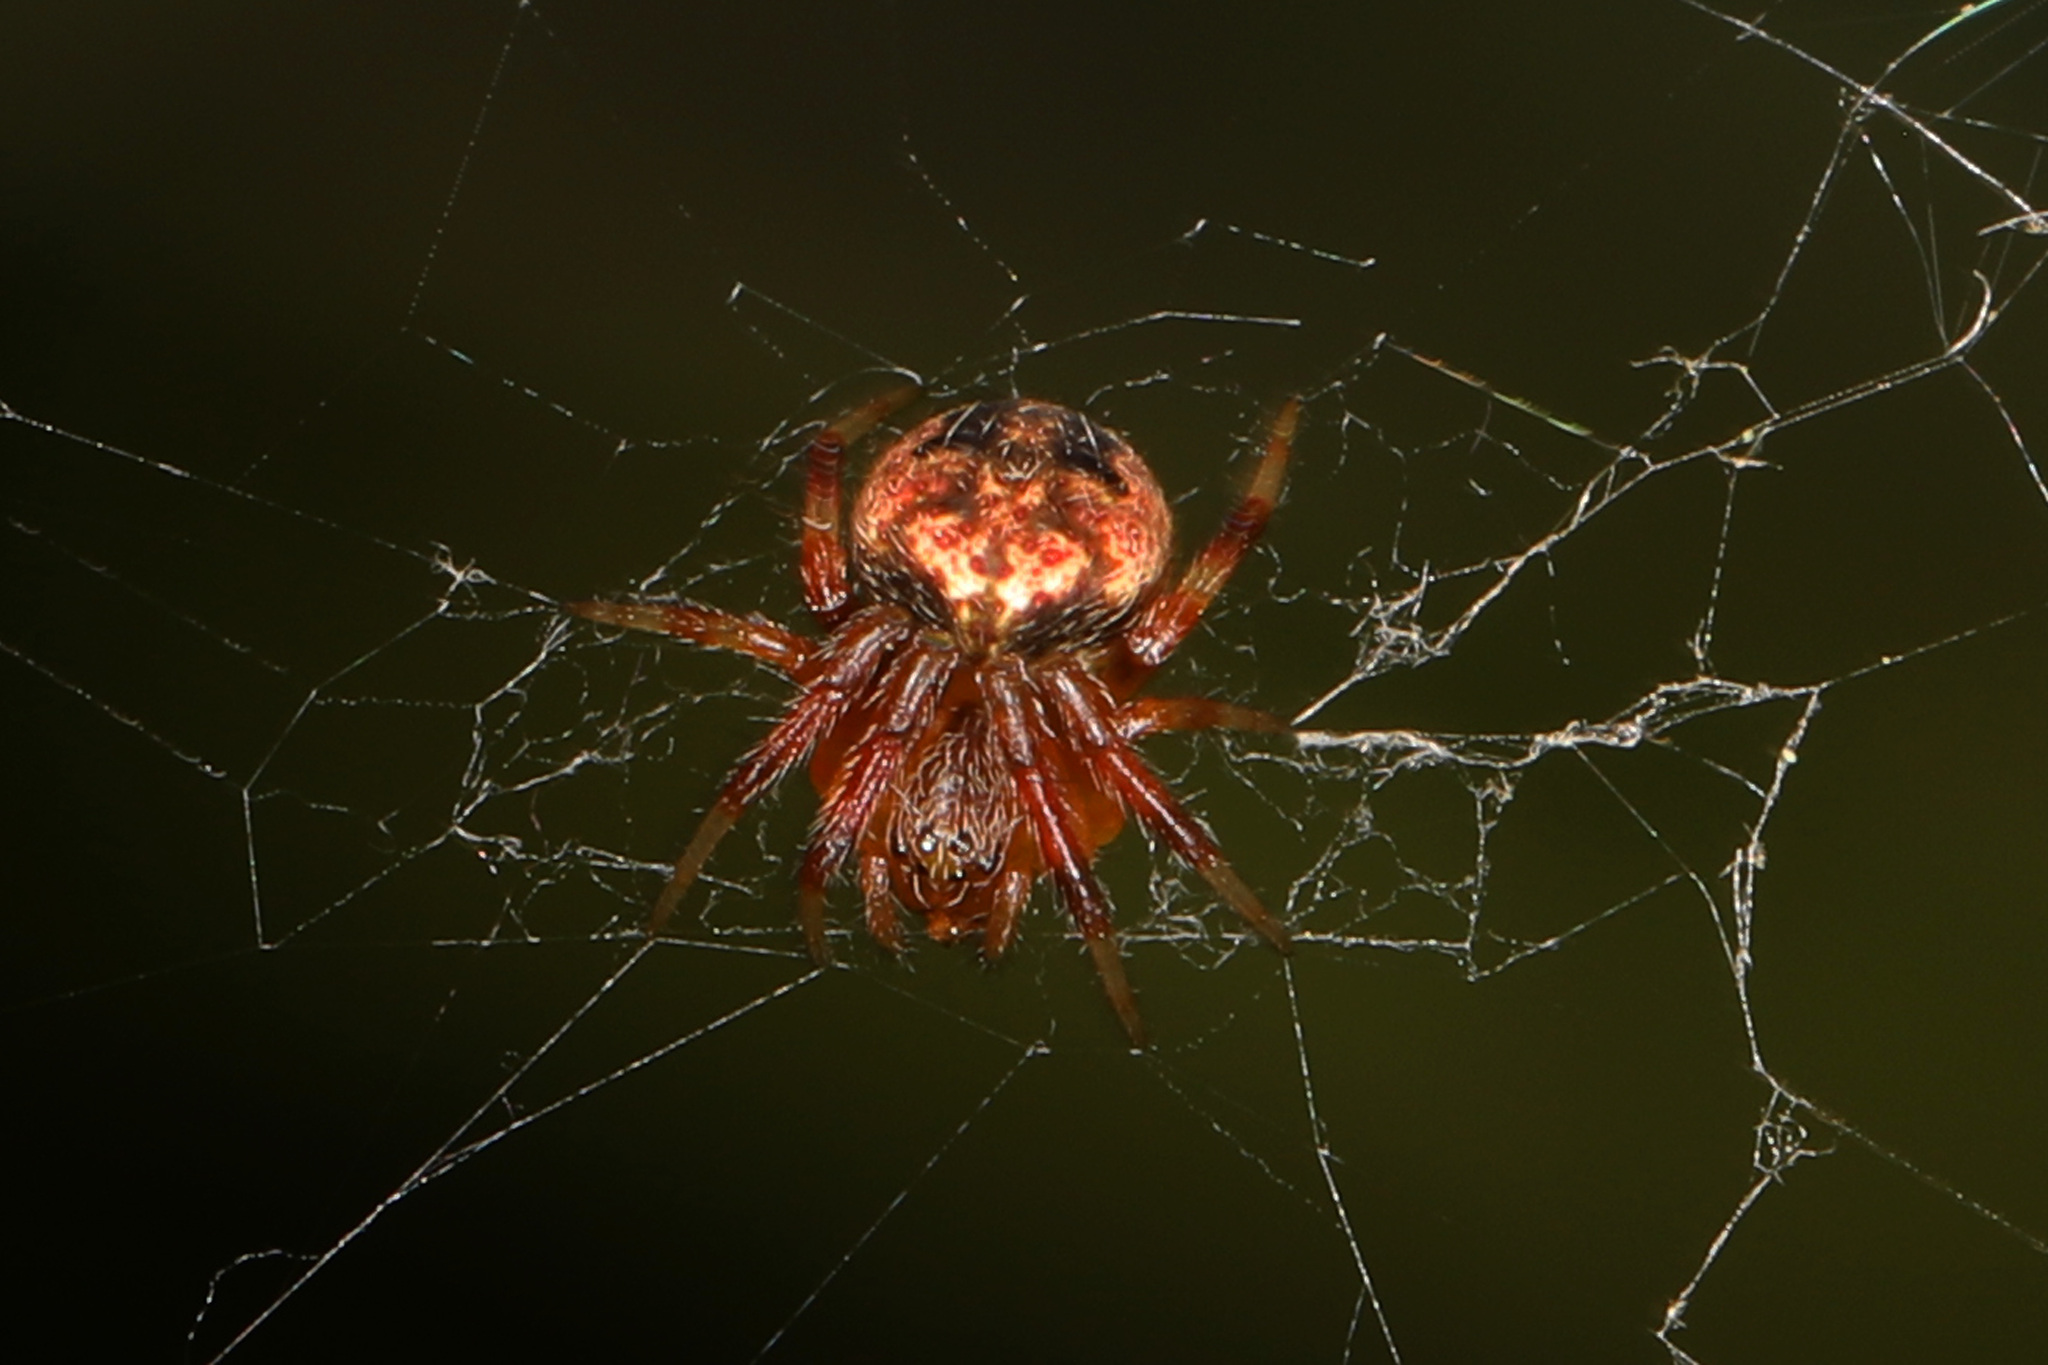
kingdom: Animalia
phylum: Arthropoda
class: Arachnida
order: Araneae
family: Araneidae
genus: Neoscona
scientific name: Neoscona arabesca
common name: Orb weavers
